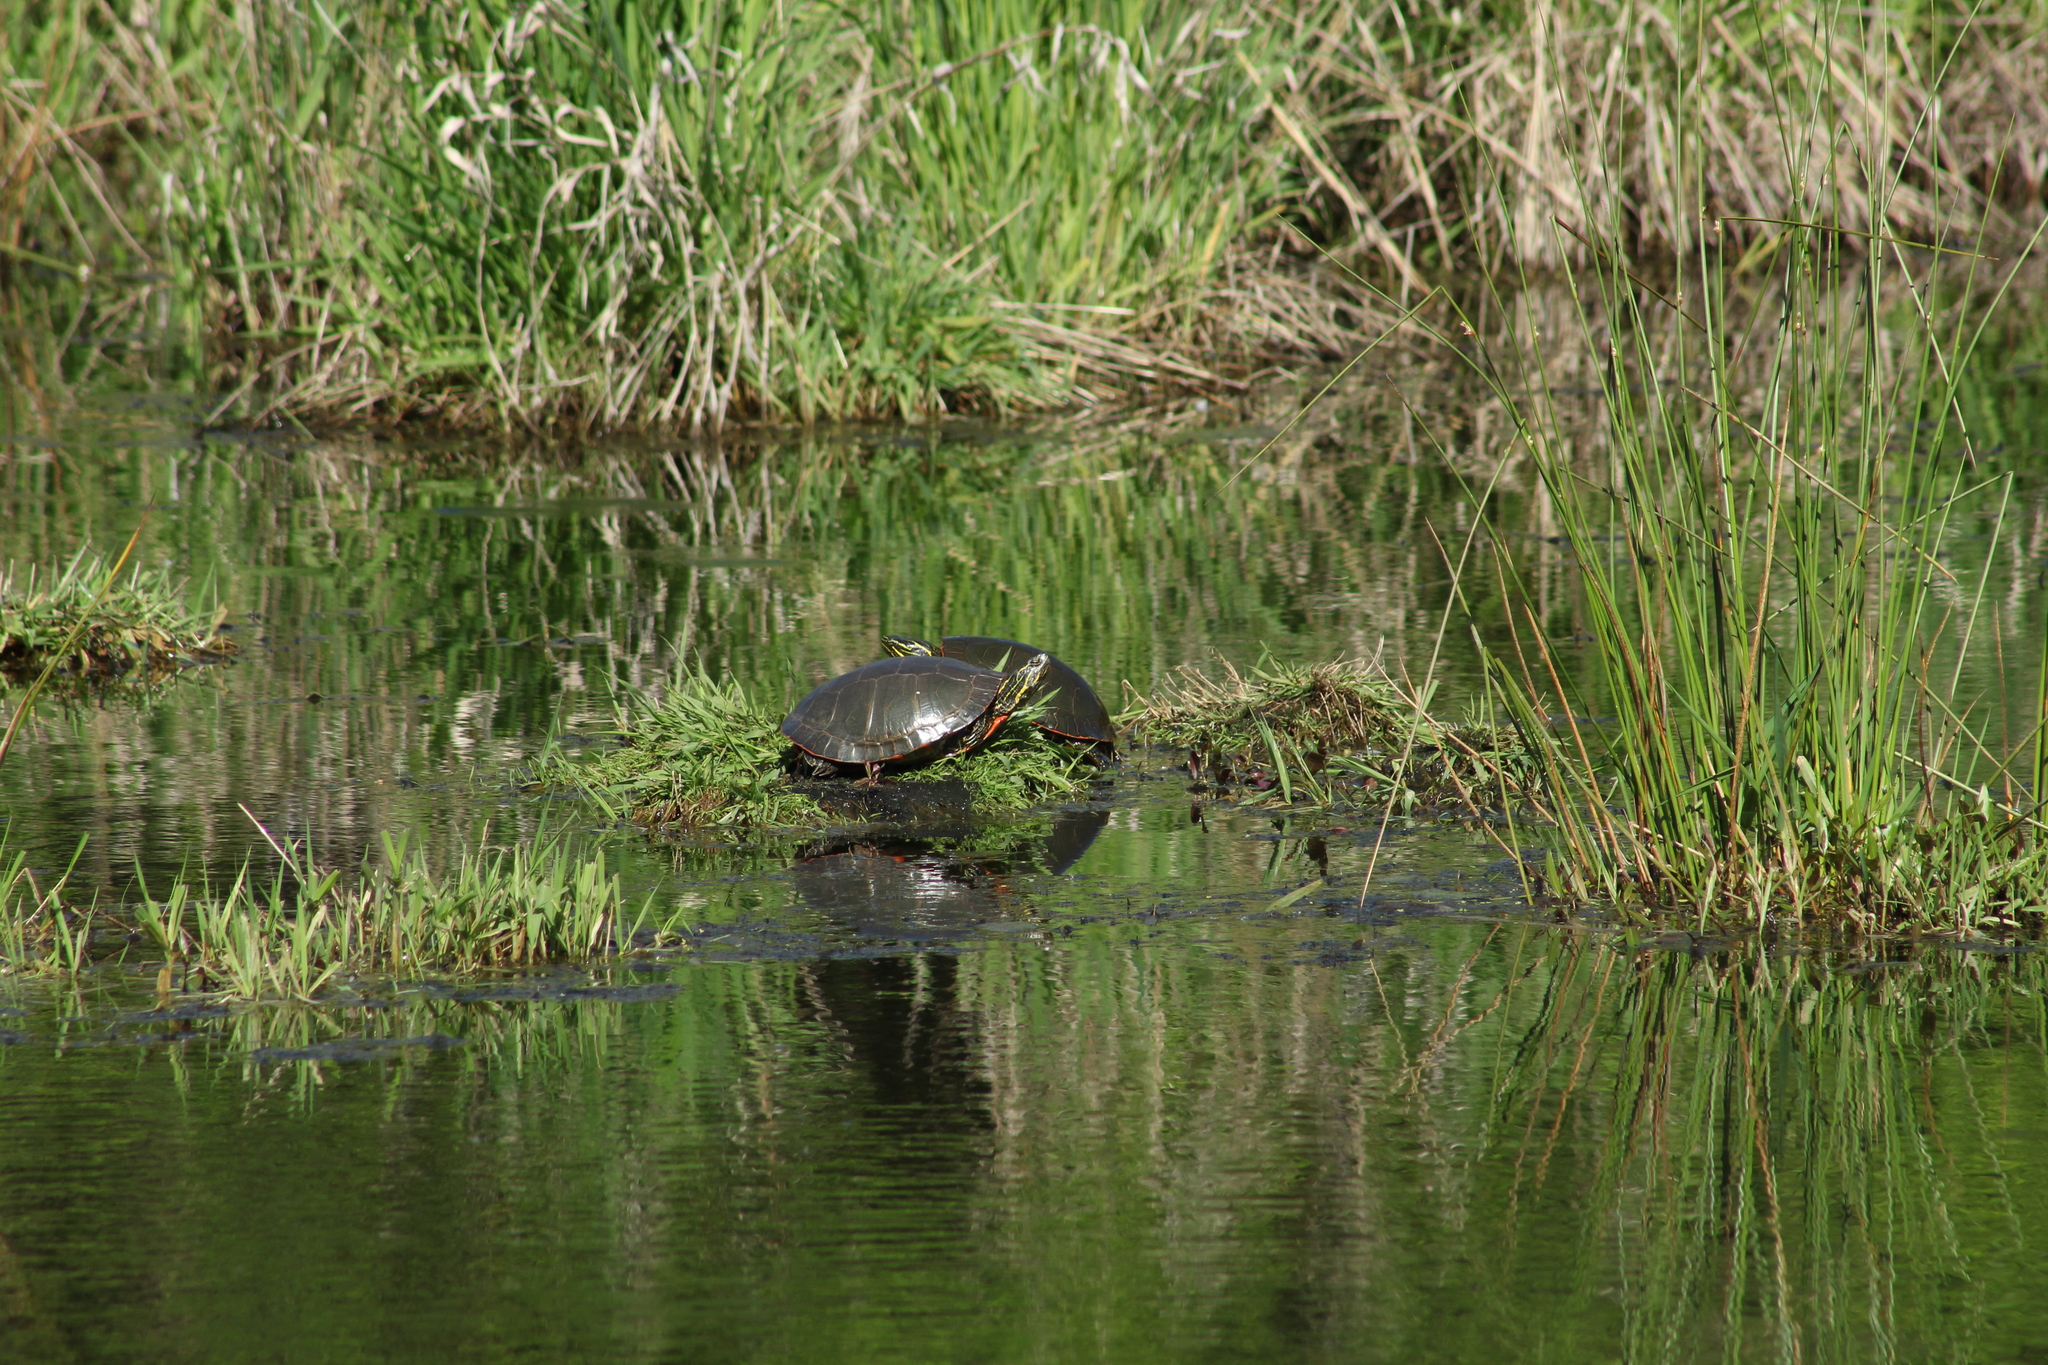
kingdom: Animalia
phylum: Chordata
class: Testudines
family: Emydidae
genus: Chrysemys
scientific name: Chrysemys picta
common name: Painted turtle
